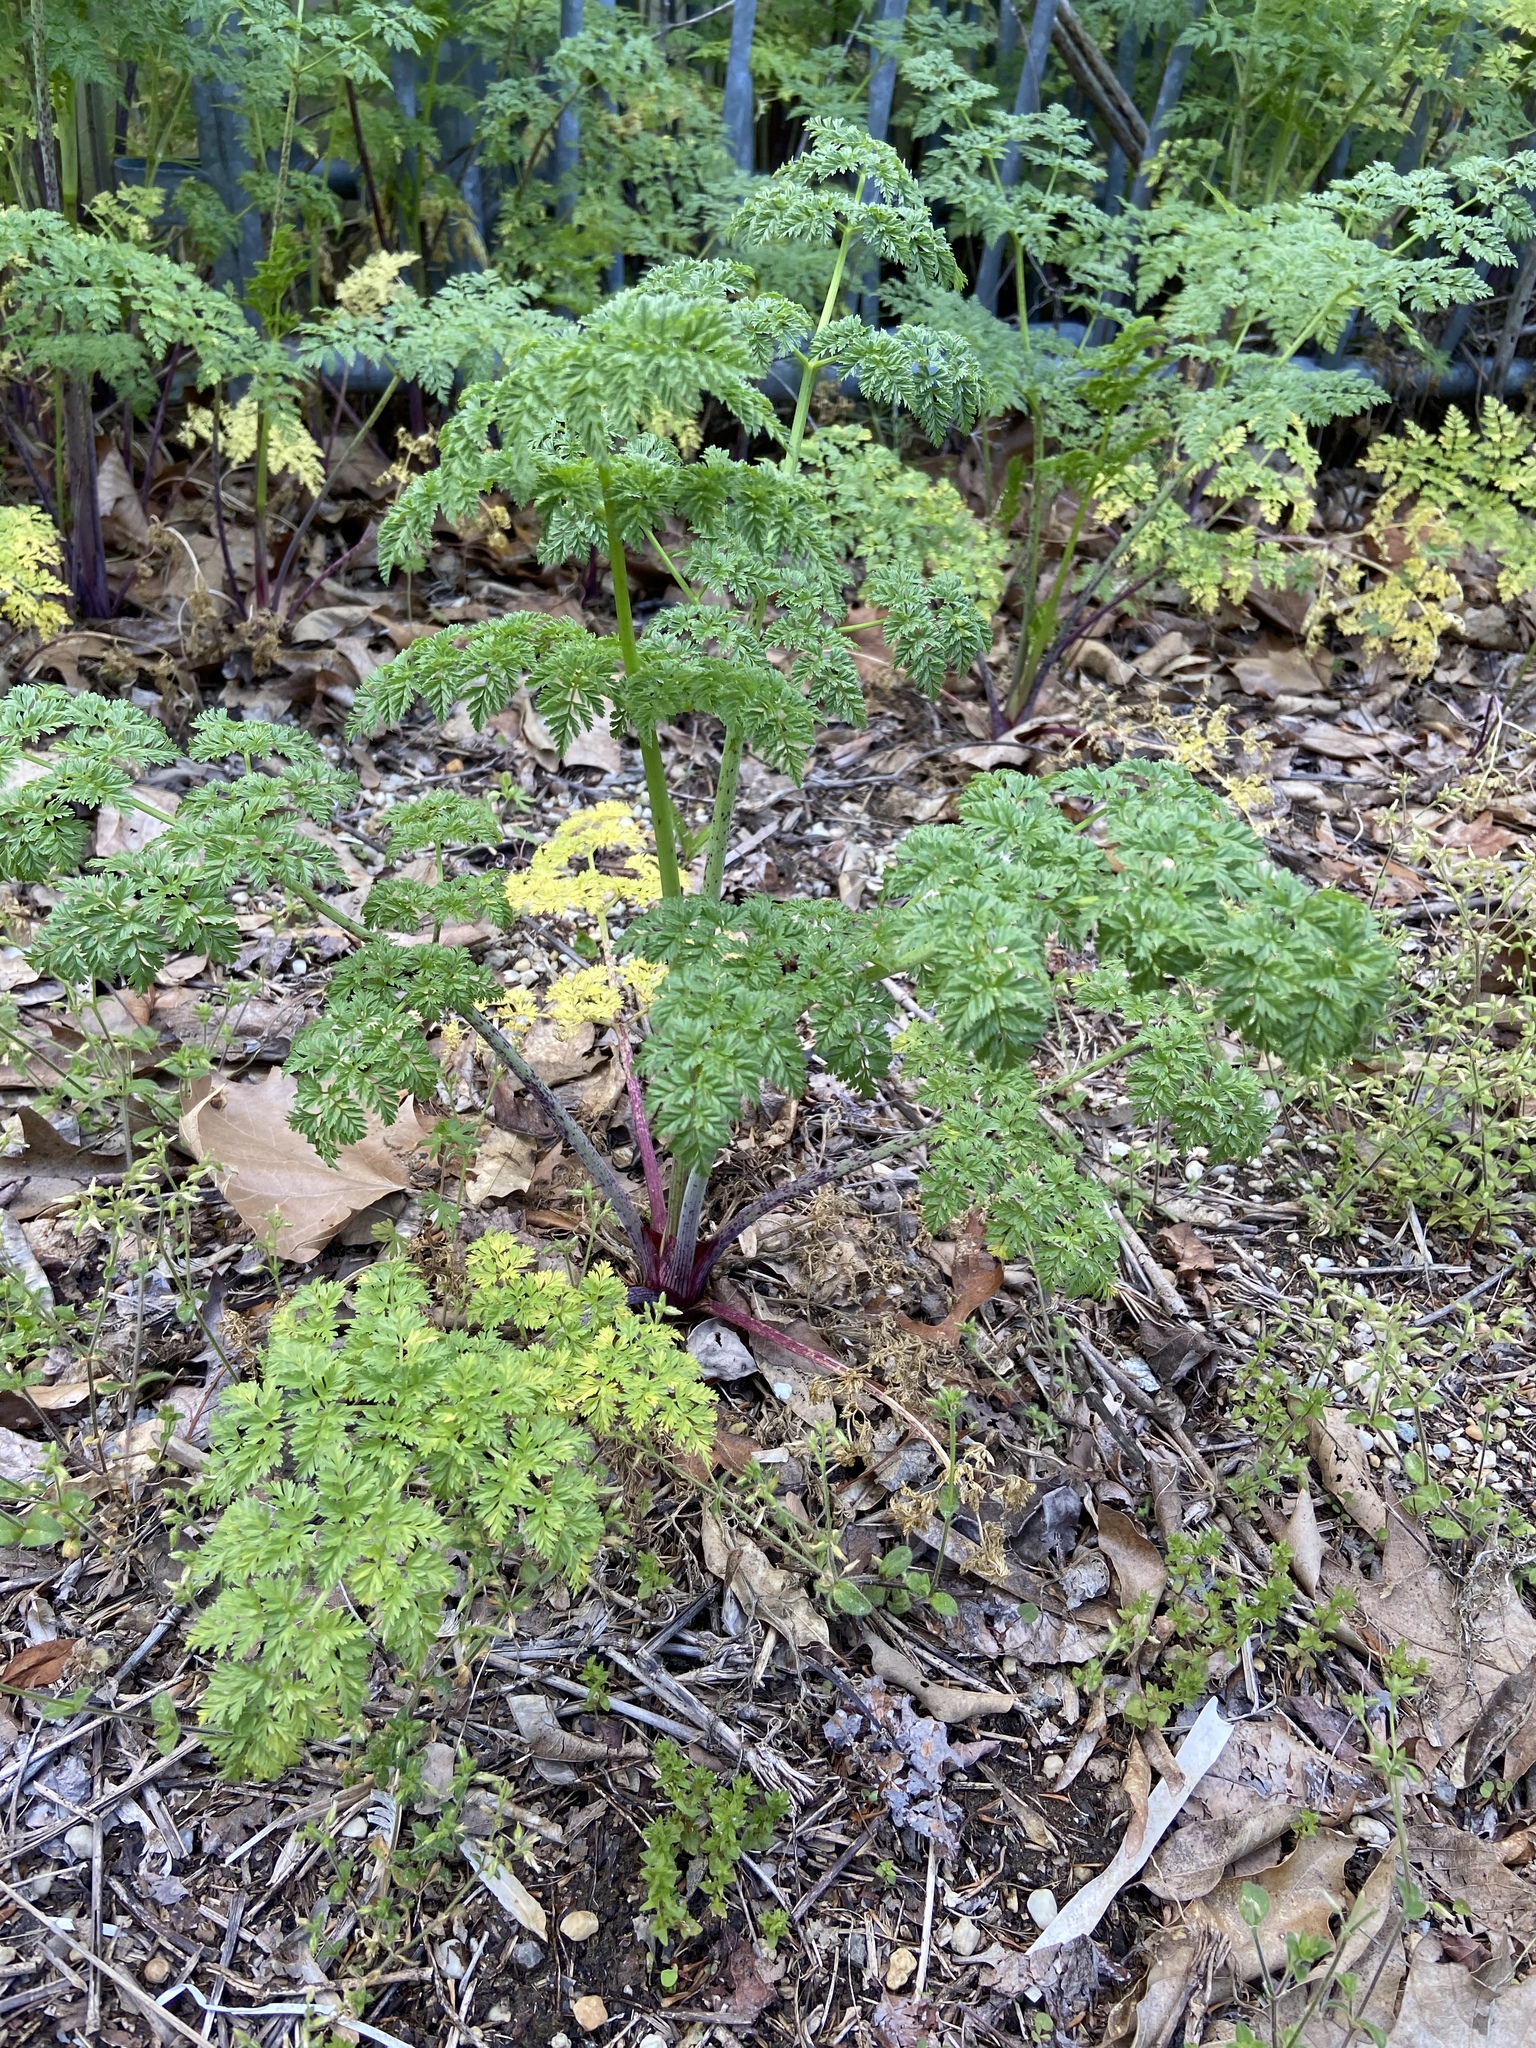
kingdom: Plantae
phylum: Tracheophyta
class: Magnoliopsida
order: Apiales
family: Apiaceae
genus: Conium
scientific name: Conium maculatum
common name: Hemlock
